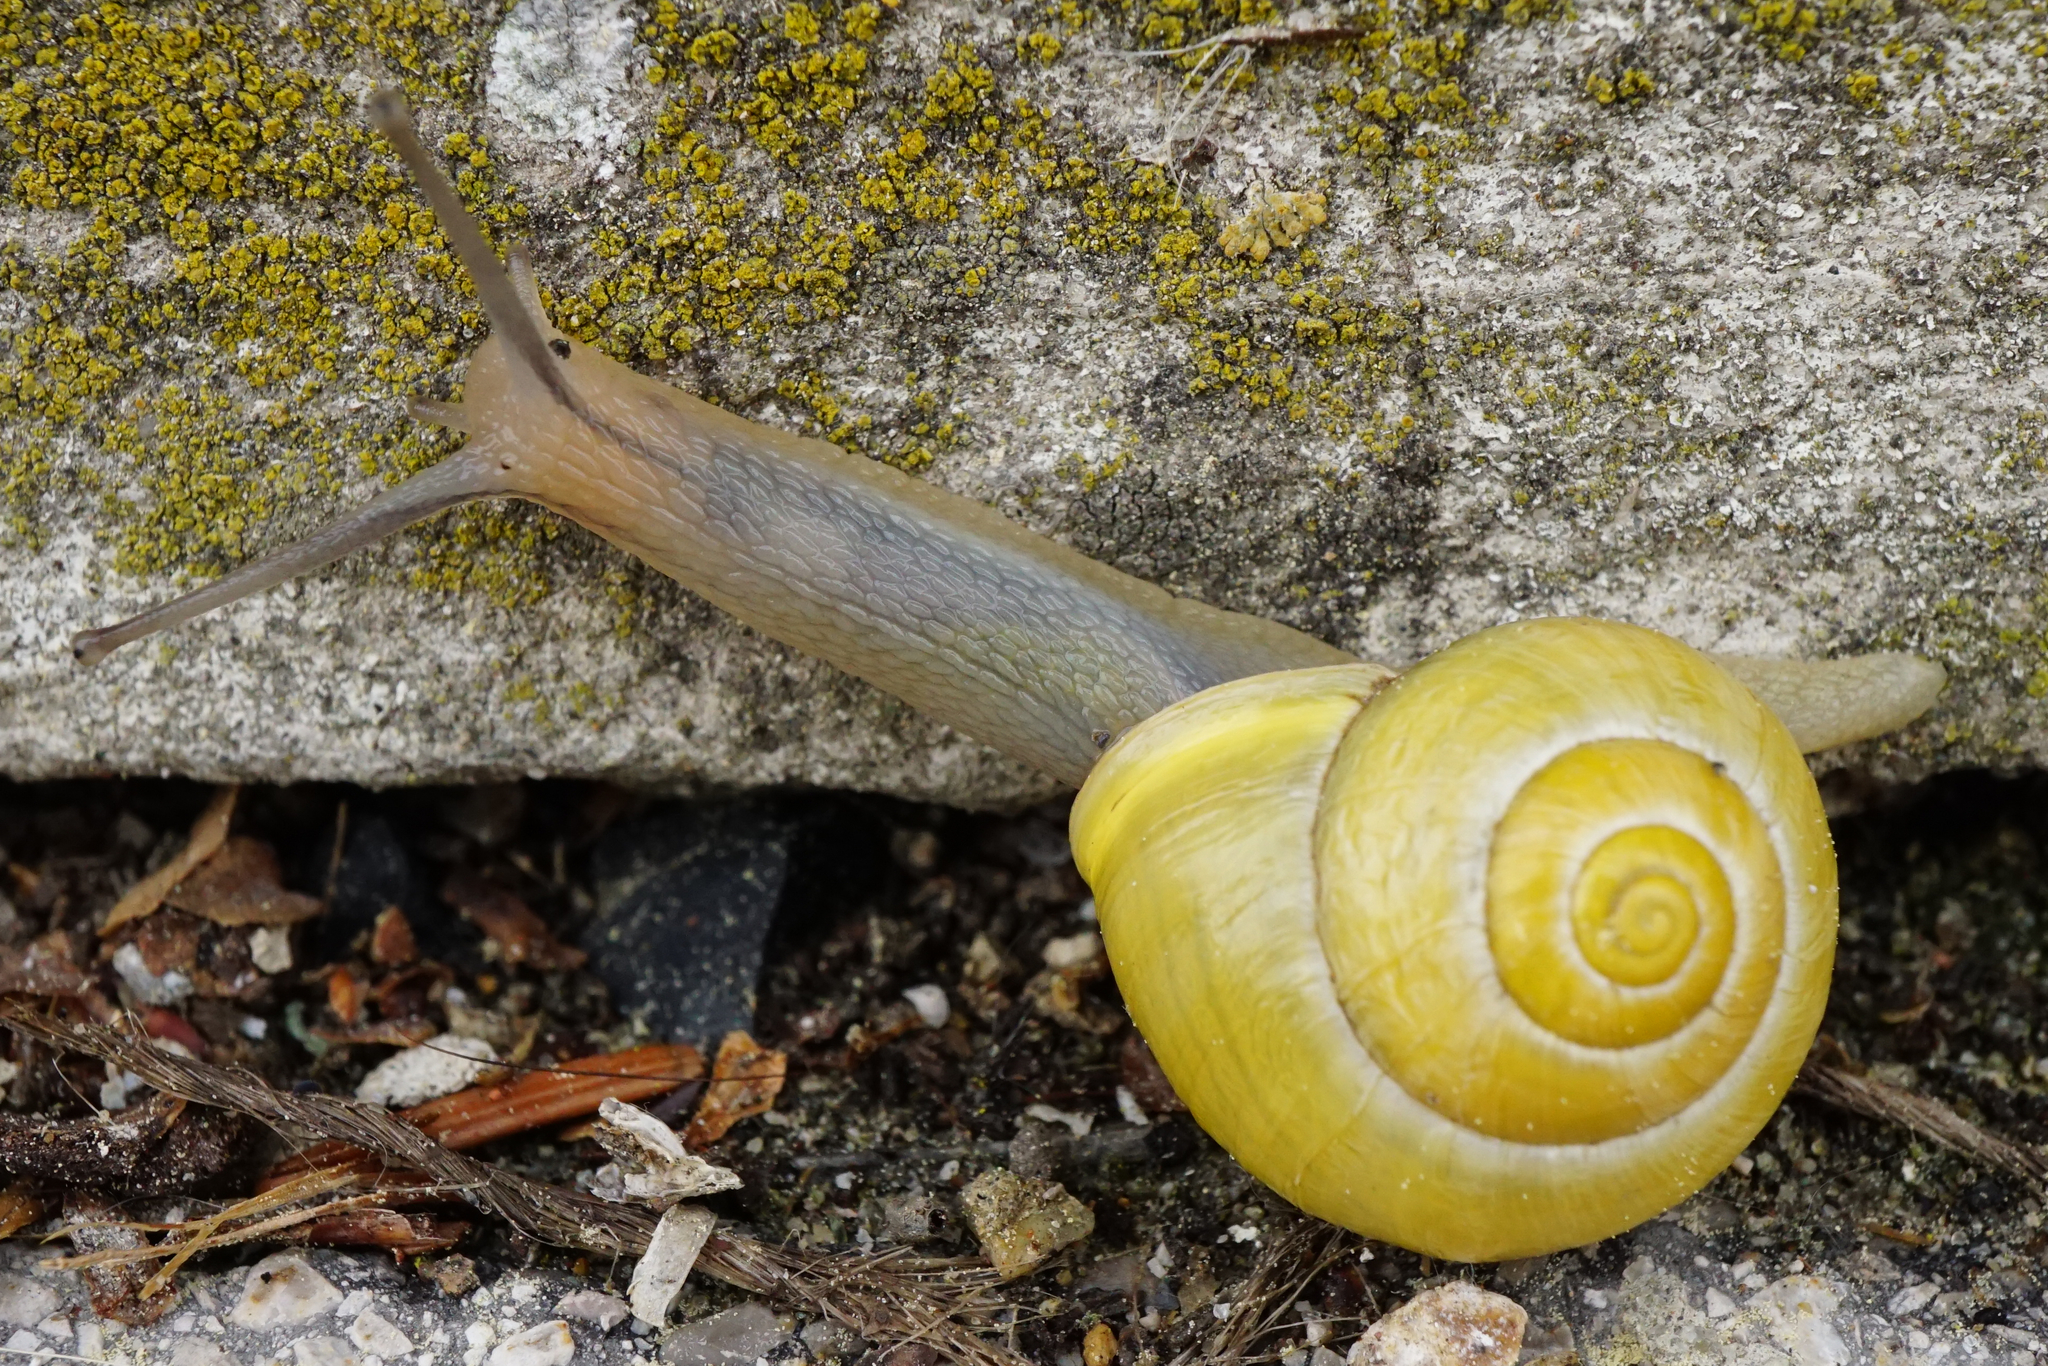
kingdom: Animalia
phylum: Mollusca
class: Gastropoda
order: Stylommatophora
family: Helicidae
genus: Cepaea
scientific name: Cepaea hortensis
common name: White-lip gardensnail
